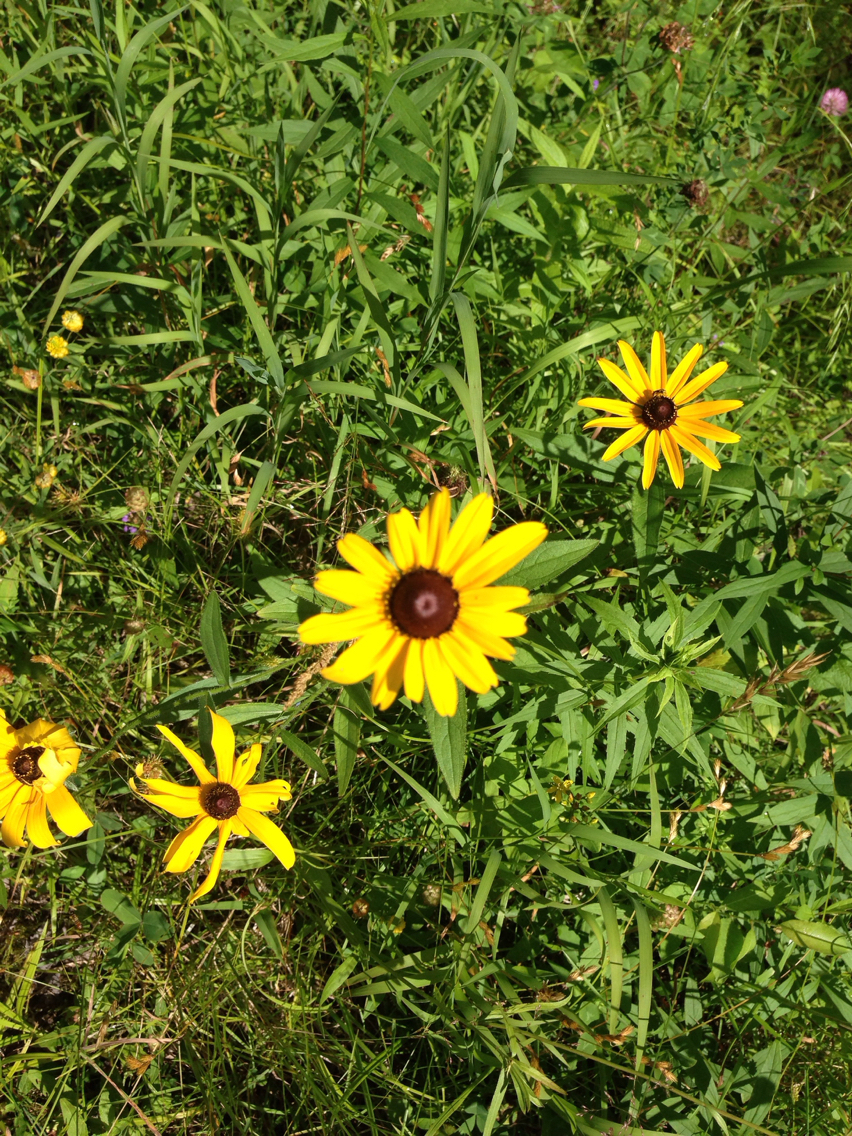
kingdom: Plantae
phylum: Tracheophyta
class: Magnoliopsida
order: Asterales
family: Asteraceae
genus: Rudbeckia
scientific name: Rudbeckia hirta
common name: Black-eyed-susan
